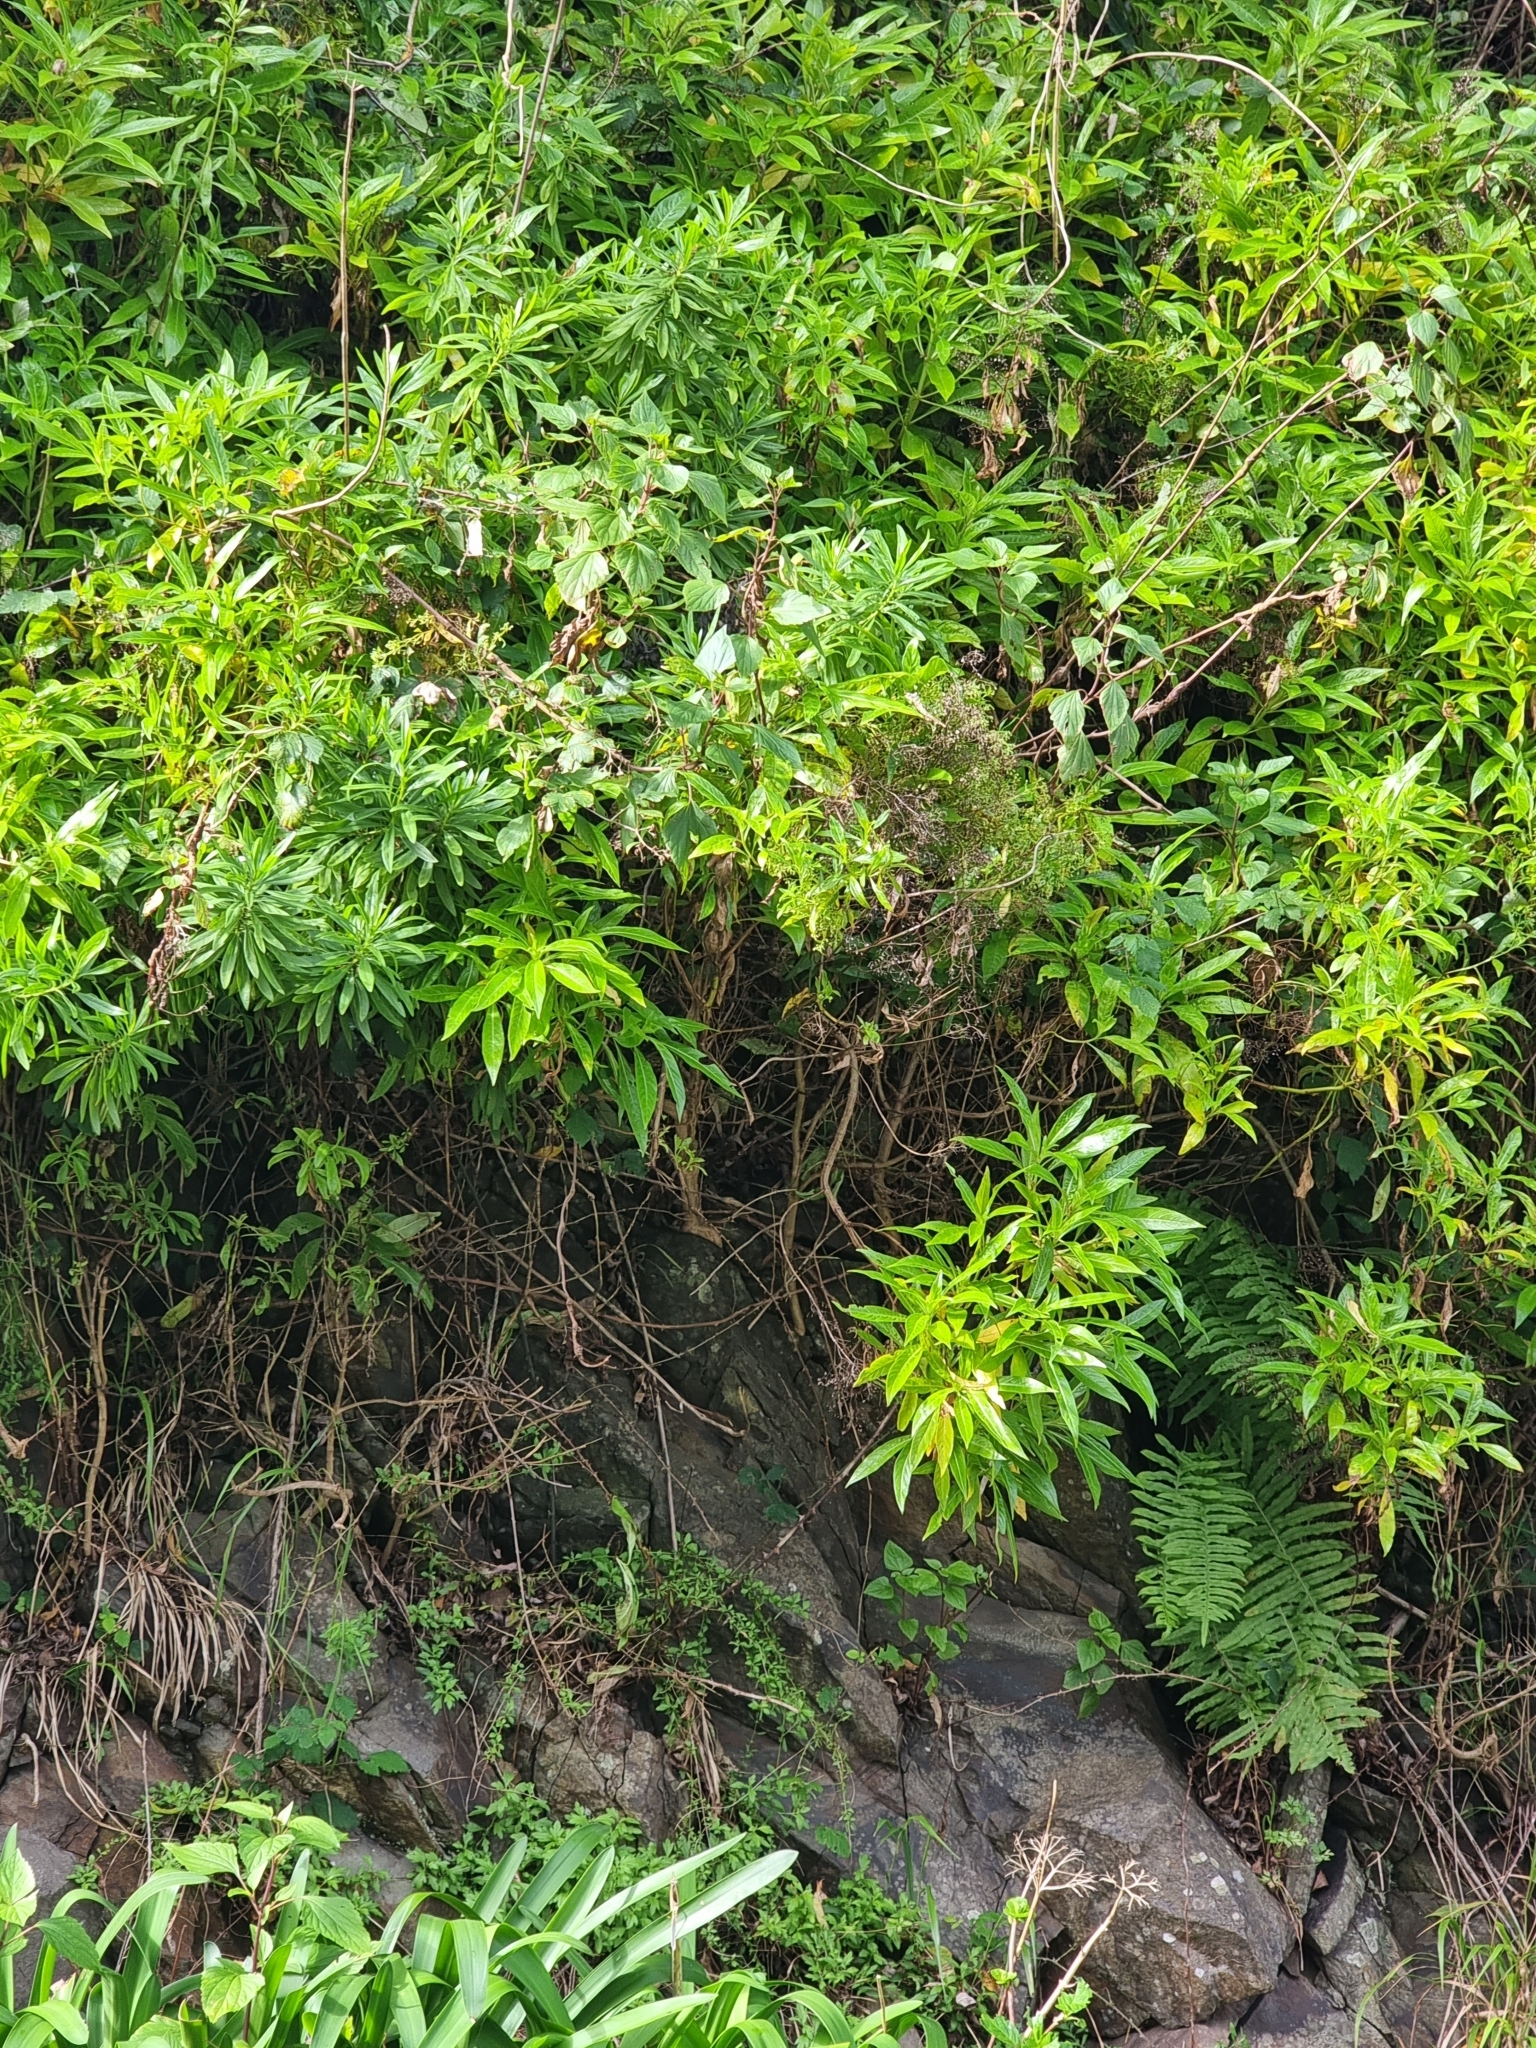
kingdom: Plantae
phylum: Tracheophyta
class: Magnoliopsida
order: Gentianales
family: Rubiaceae
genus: Phyllis
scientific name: Phyllis nobla
